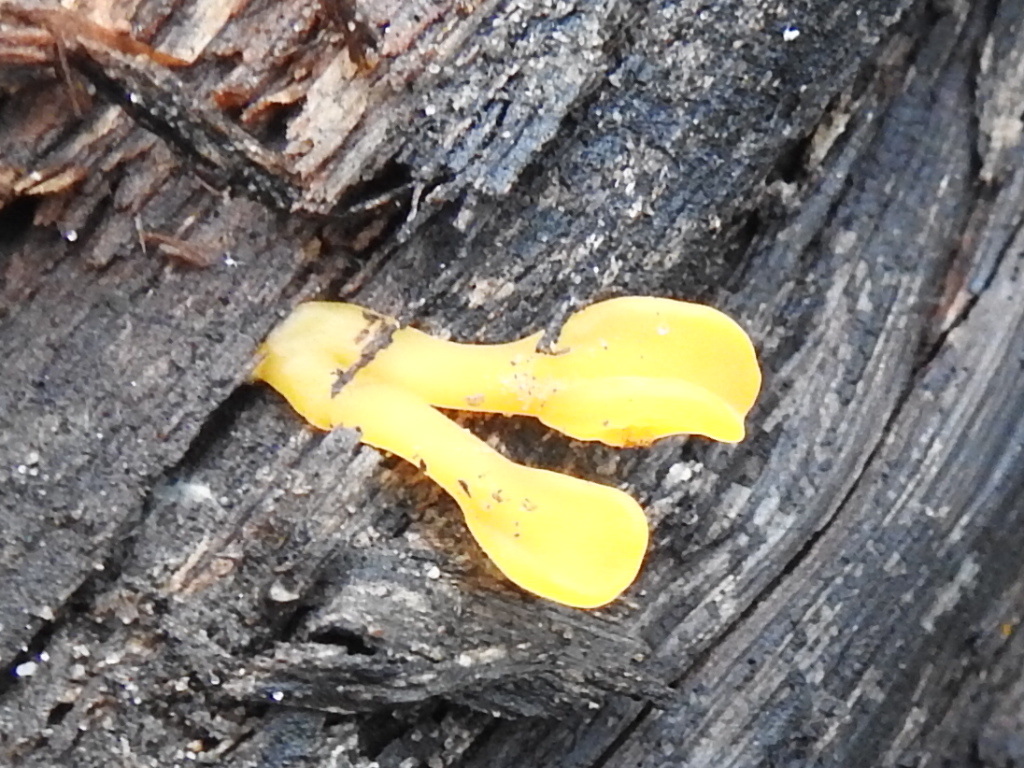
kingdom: Fungi
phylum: Basidiomycota
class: Dacrymycetes
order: Dacrymycetales
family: Dacrymycetaceae
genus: Dacrymyces
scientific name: Dacrymyces spathularius
